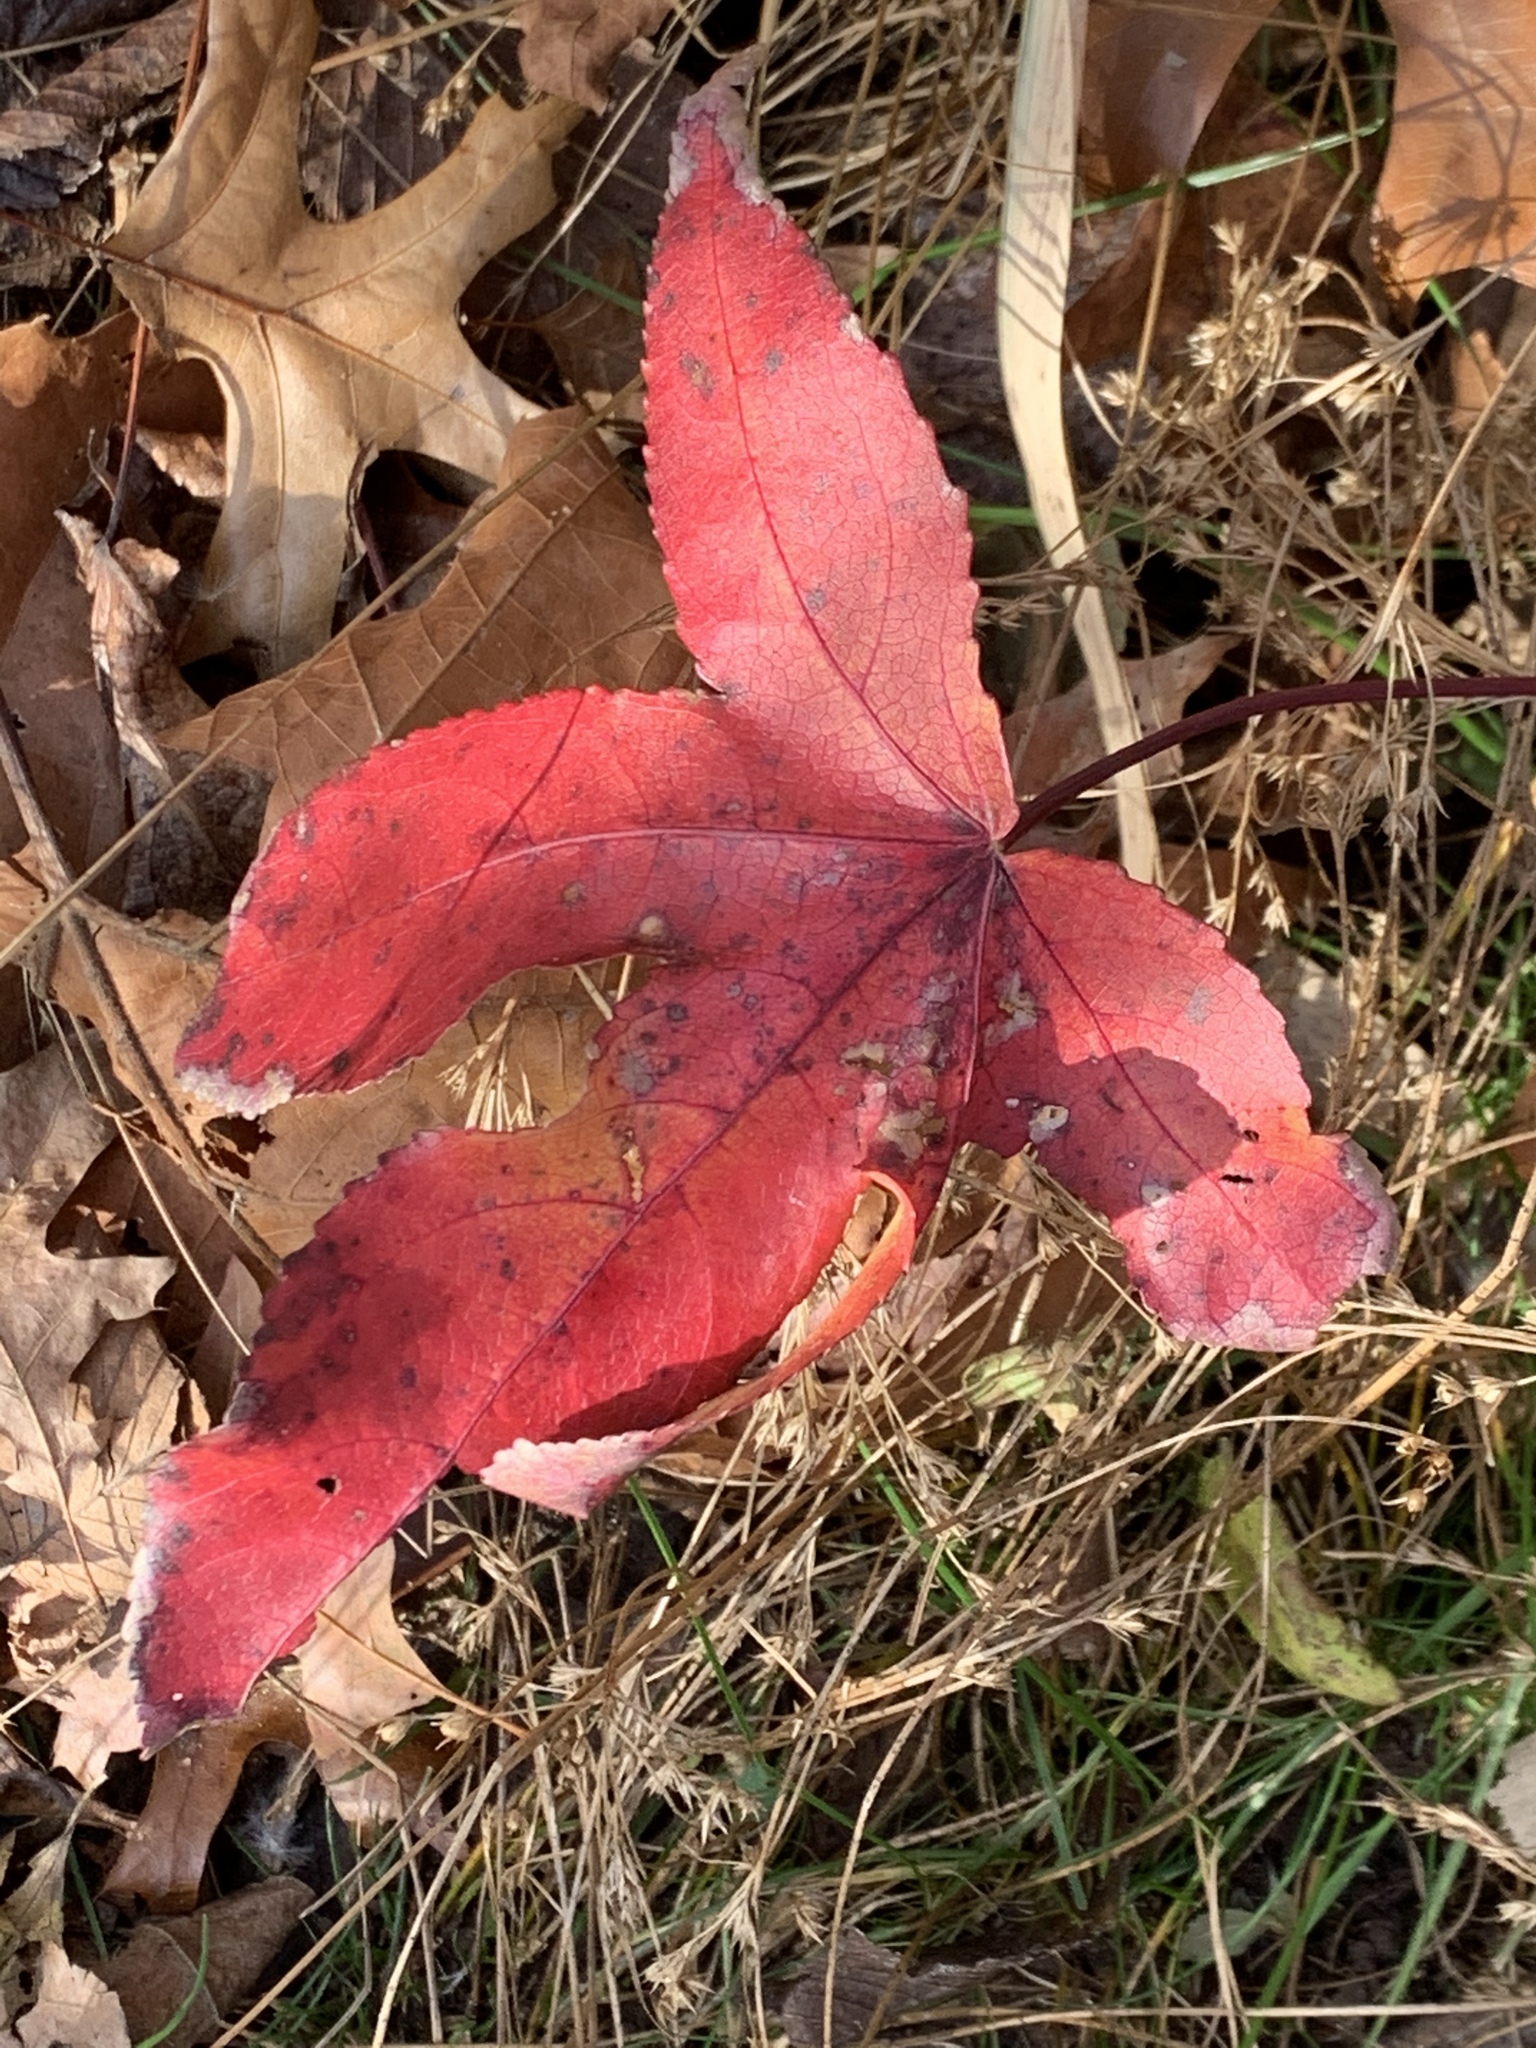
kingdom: Plantae
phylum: Tracheophyta
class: Magnoliopsida
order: Saxifragales
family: Altingiaceae
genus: Liquidambar
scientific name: Liquidambar styraciflua
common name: Sweet gum
